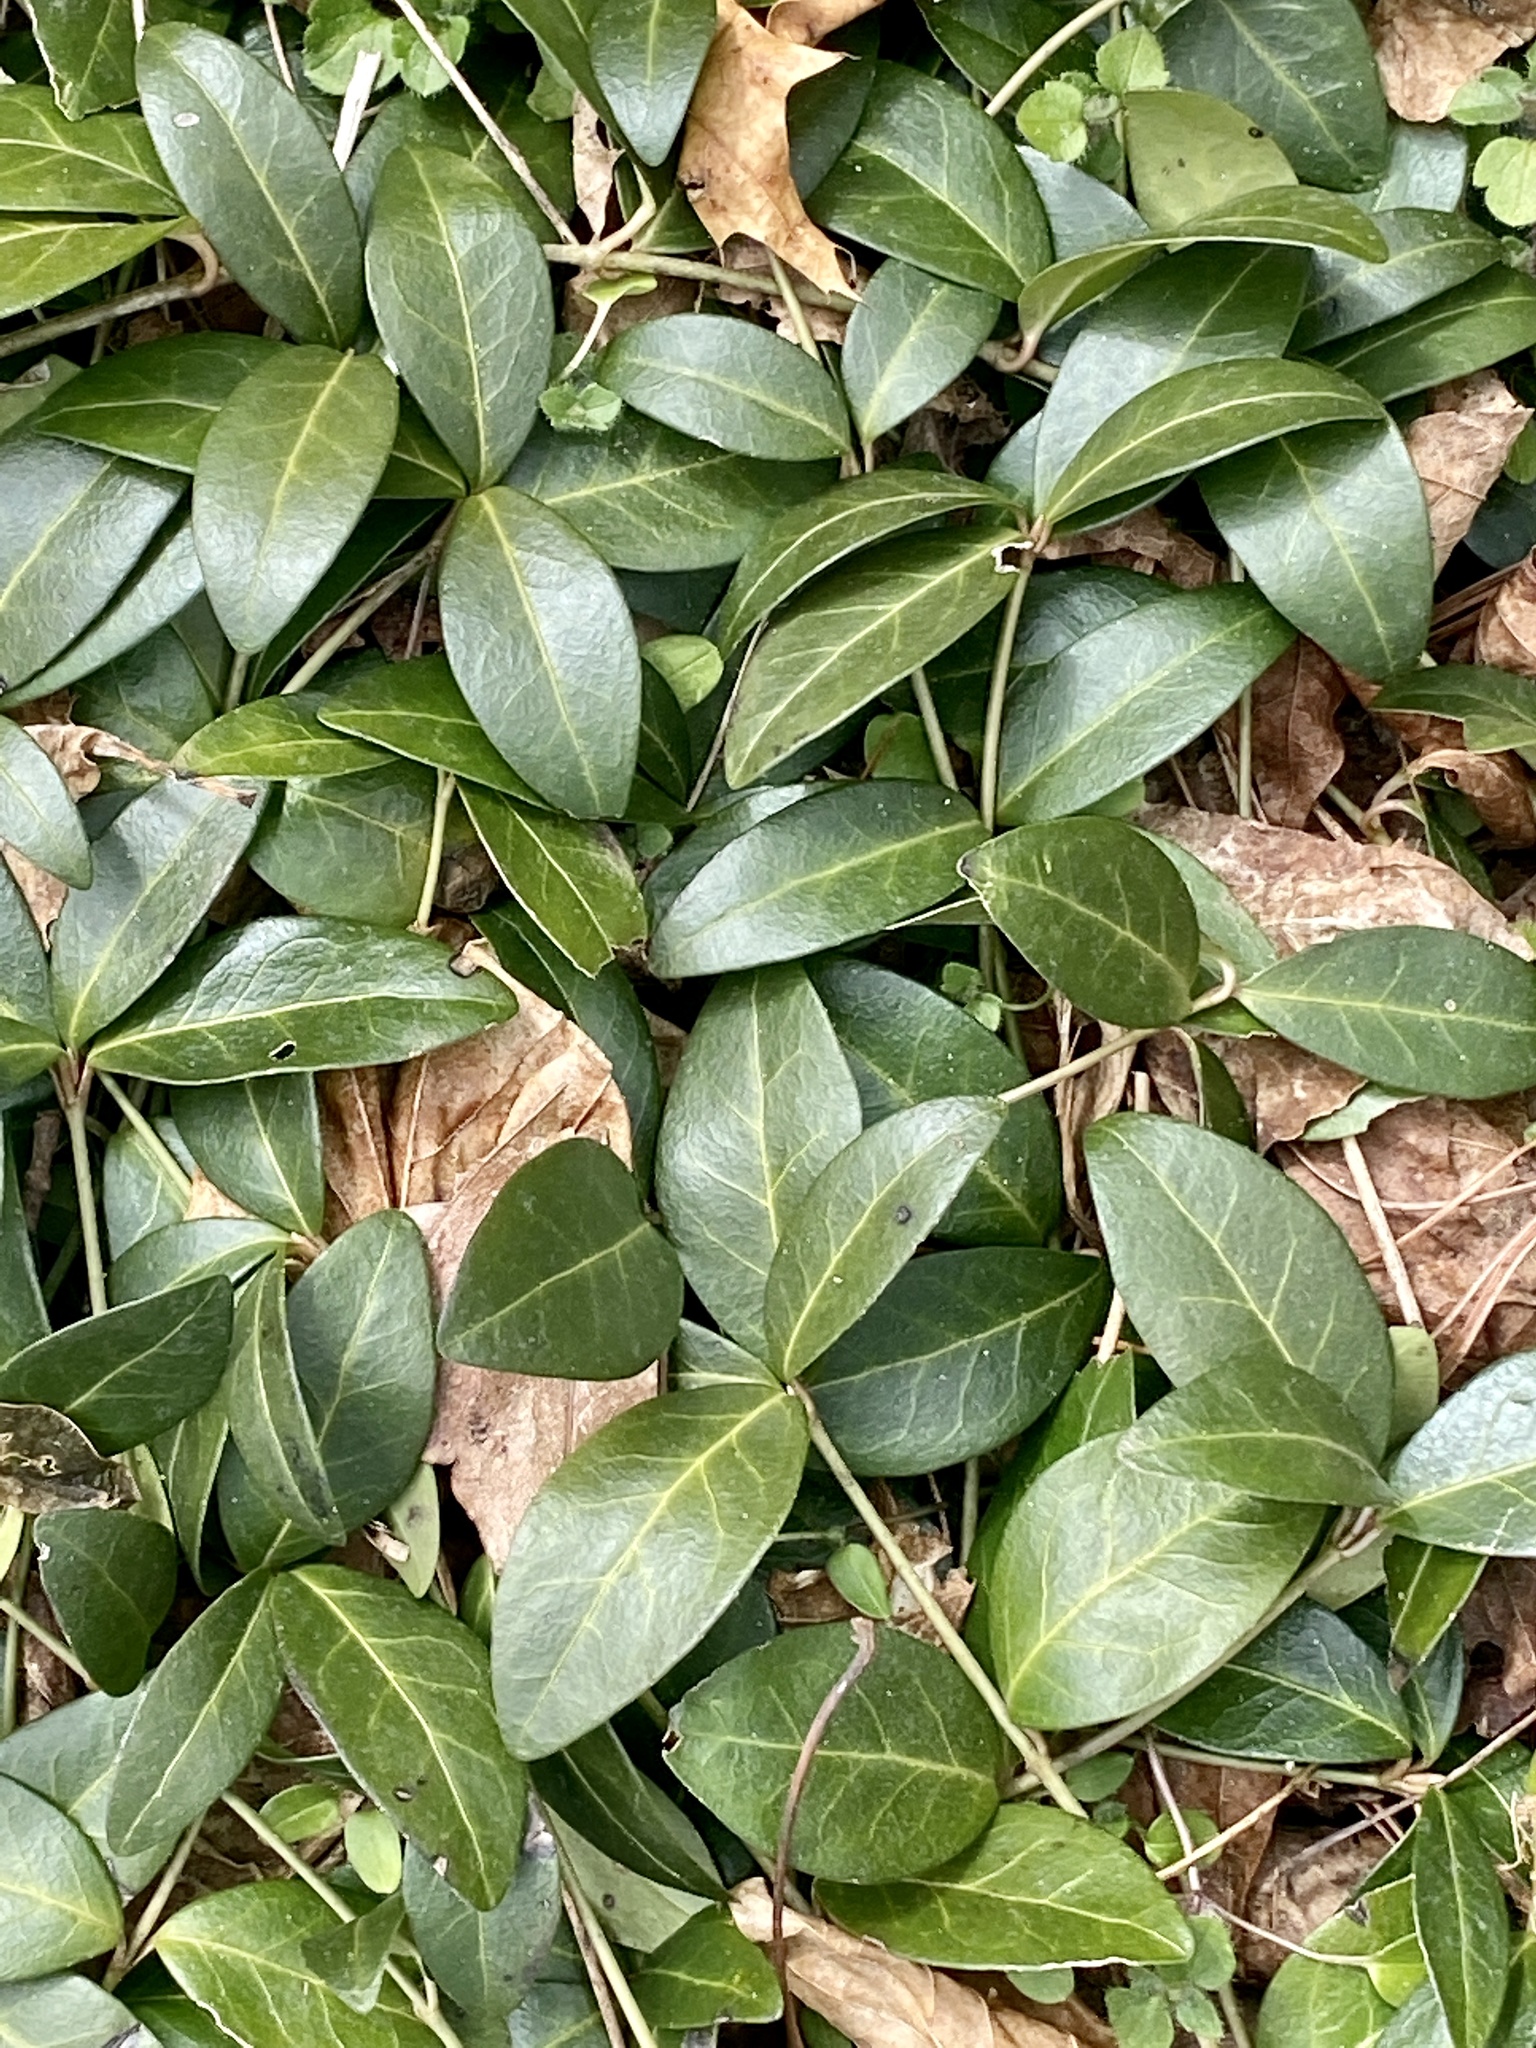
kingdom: Plantae
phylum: Tracheophyta
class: Magnoliopsida
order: Gentianales
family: Apocynaceae
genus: Vinca
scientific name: Vinca minor
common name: Lesser periwinkle
